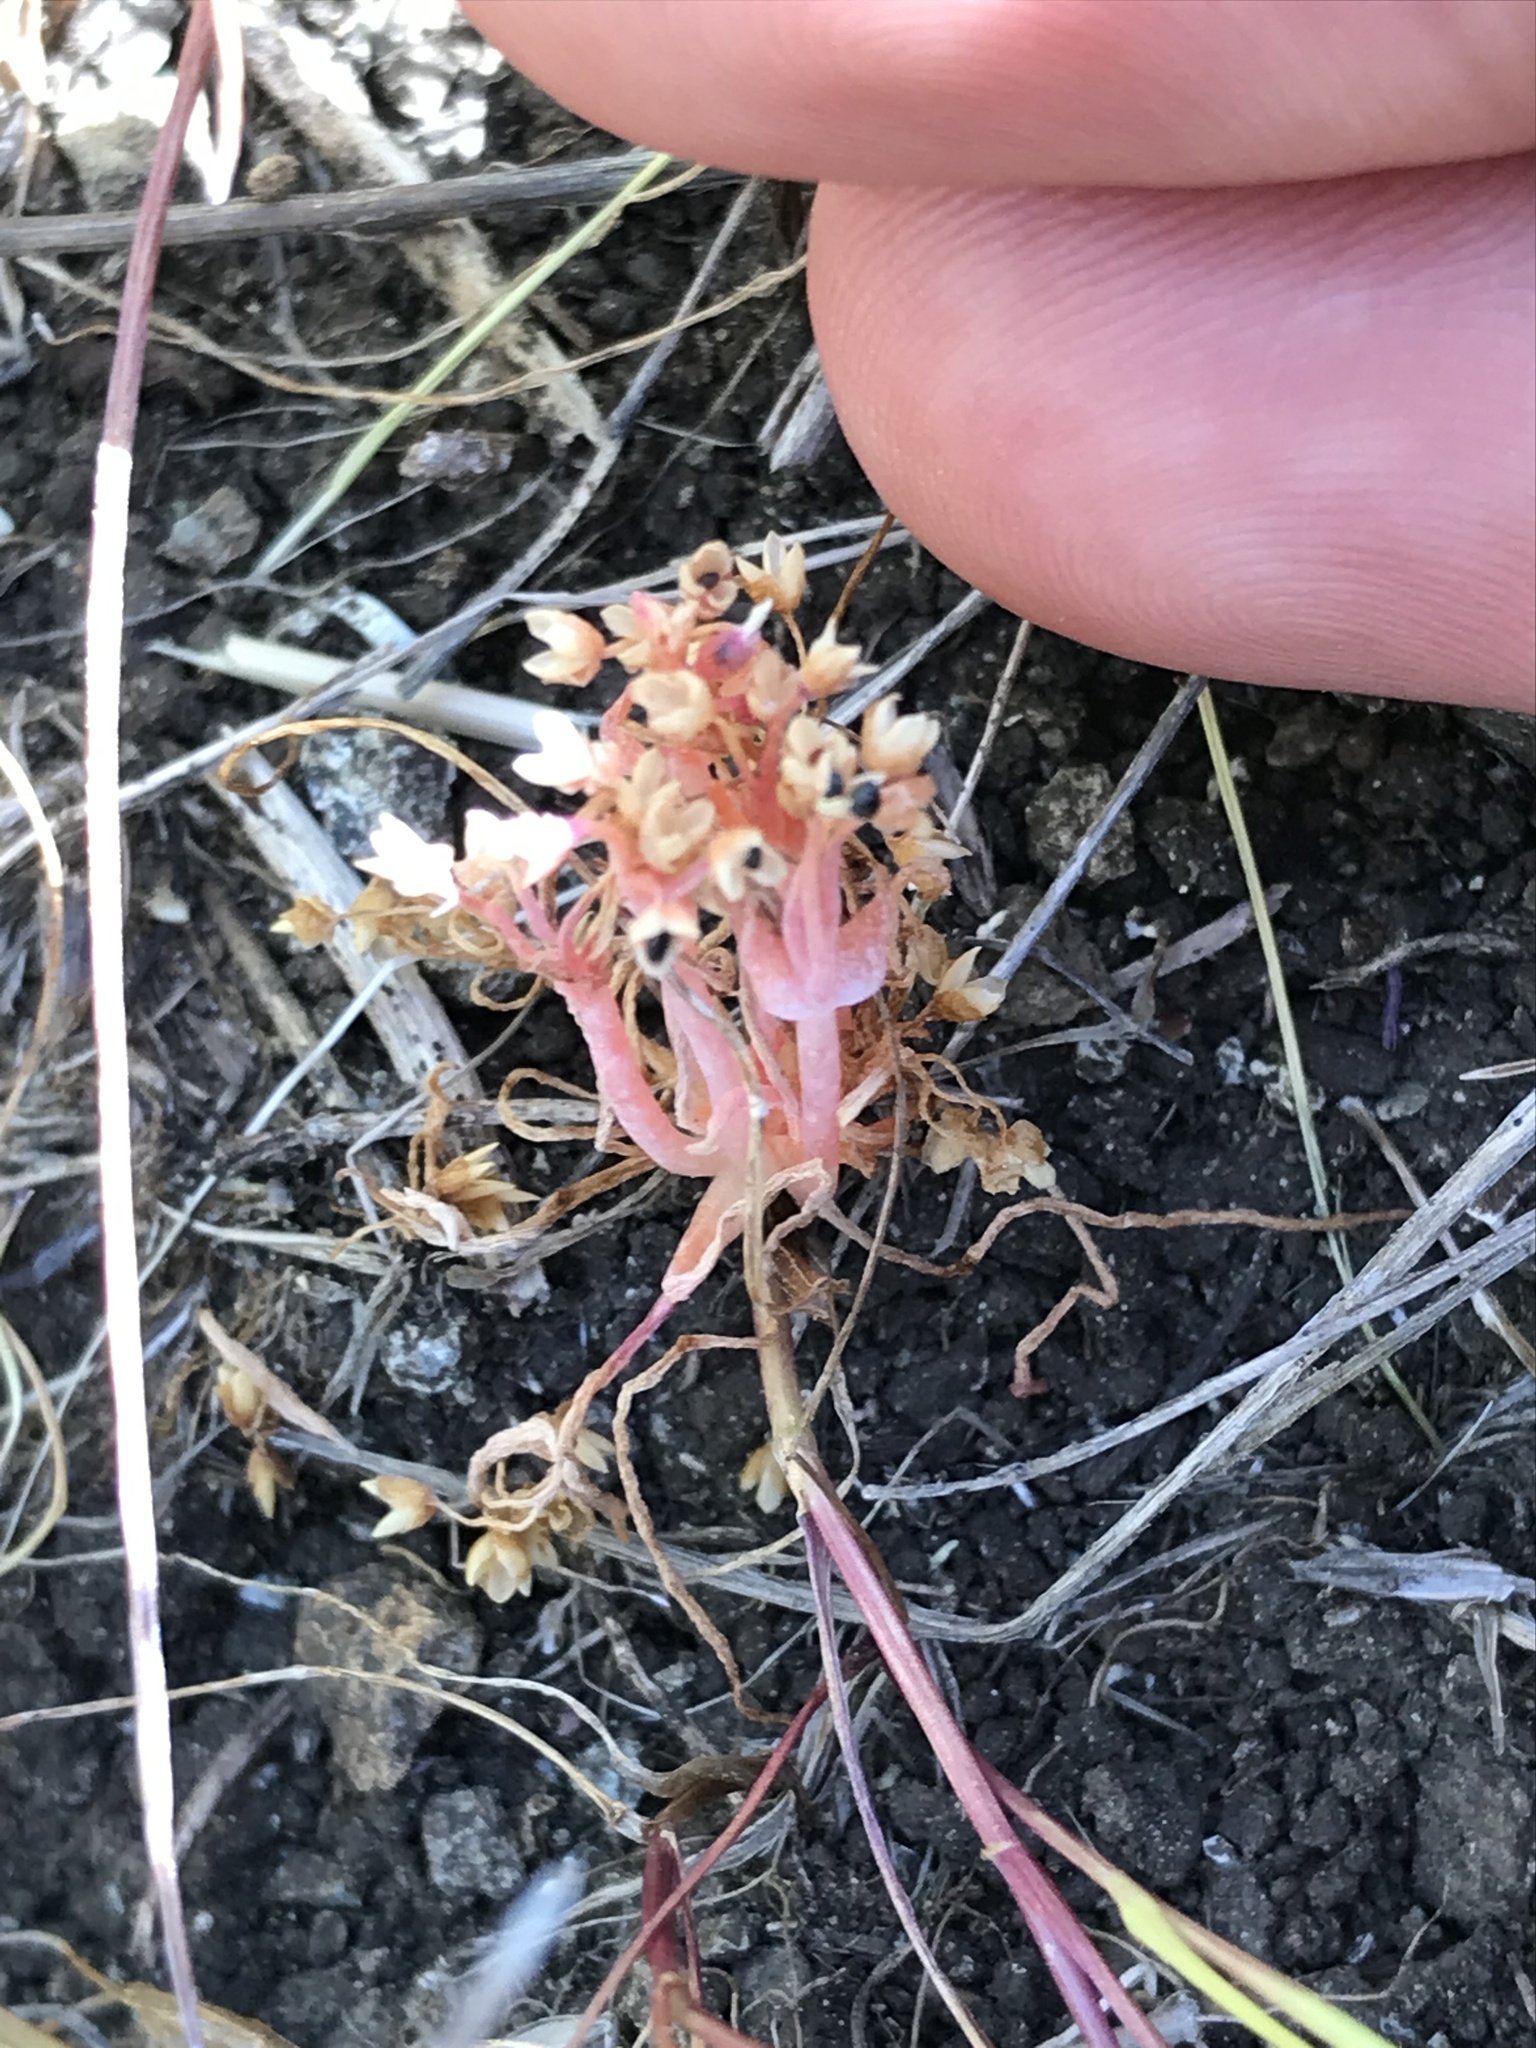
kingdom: Plantae
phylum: Tracheophyta
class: Magnoliopsida
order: Caryophyllales
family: Montiaceae
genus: Claytonia
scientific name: Claytonia exigua
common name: Pale spring beauty
